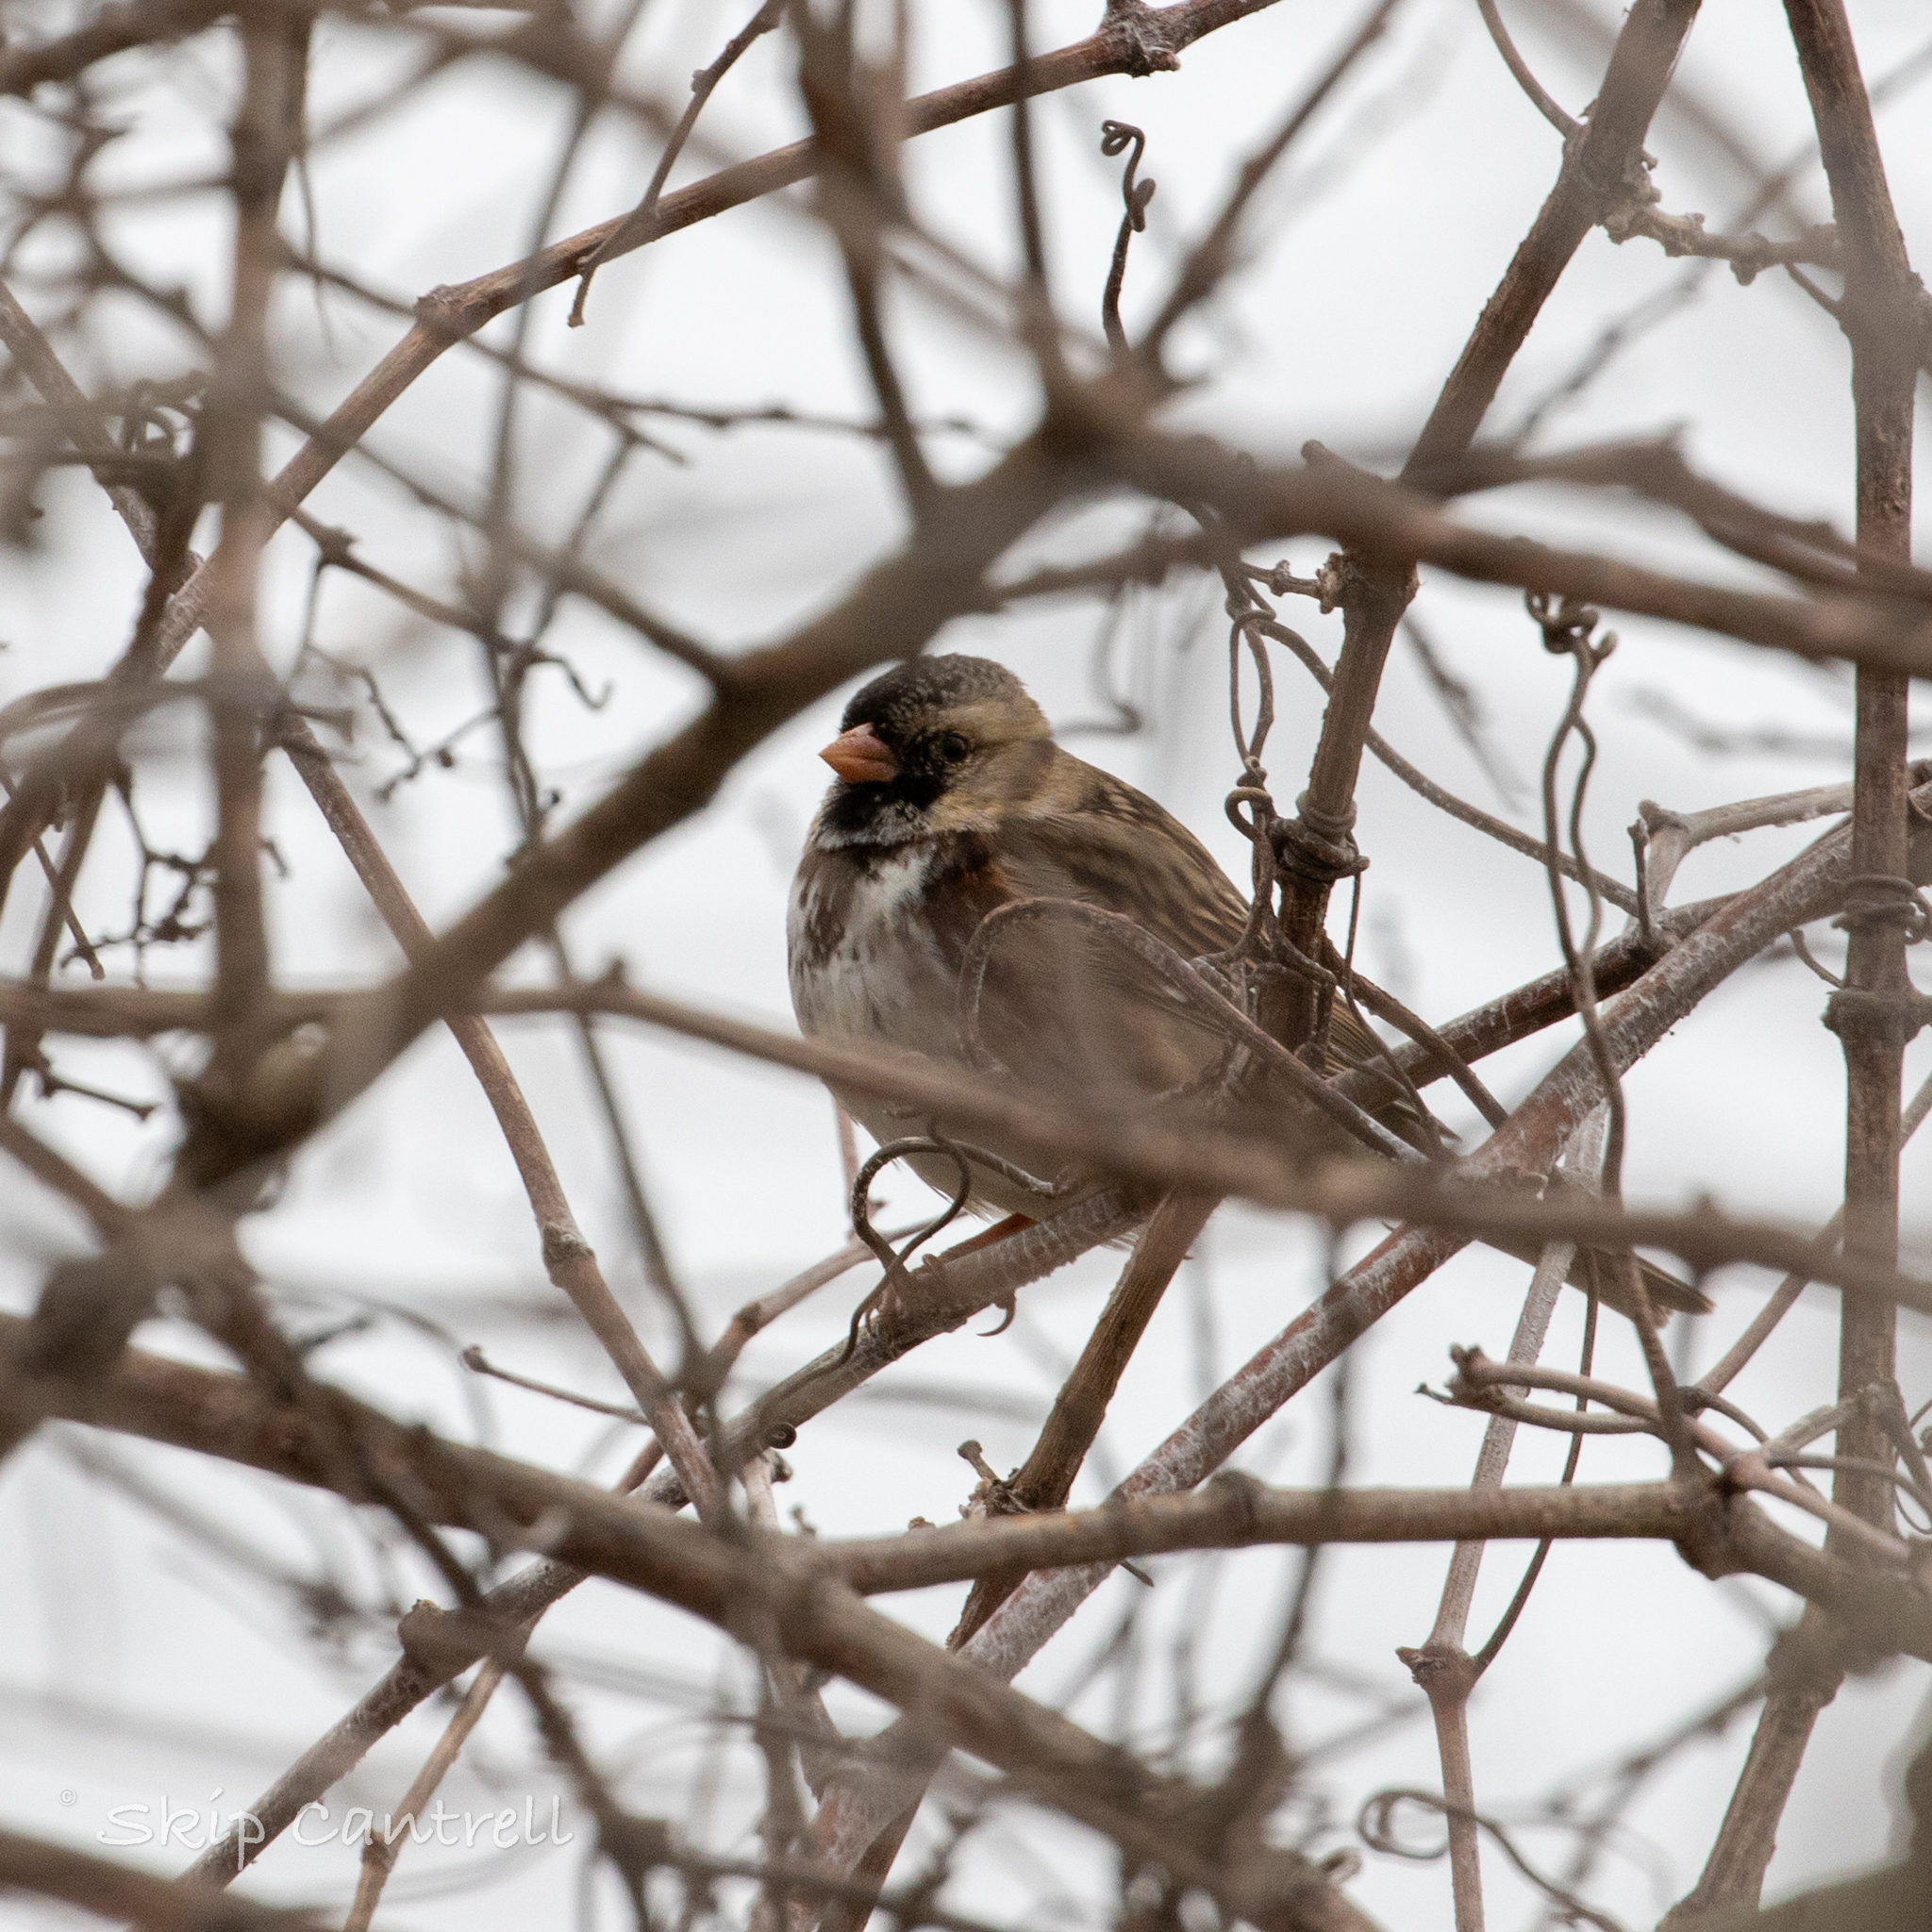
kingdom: Animalia
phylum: Chordata
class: Aves
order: Passeriformes
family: Passerellidae
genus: Zonotrichia
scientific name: Zonotrichia querula
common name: Harris's sparrow
